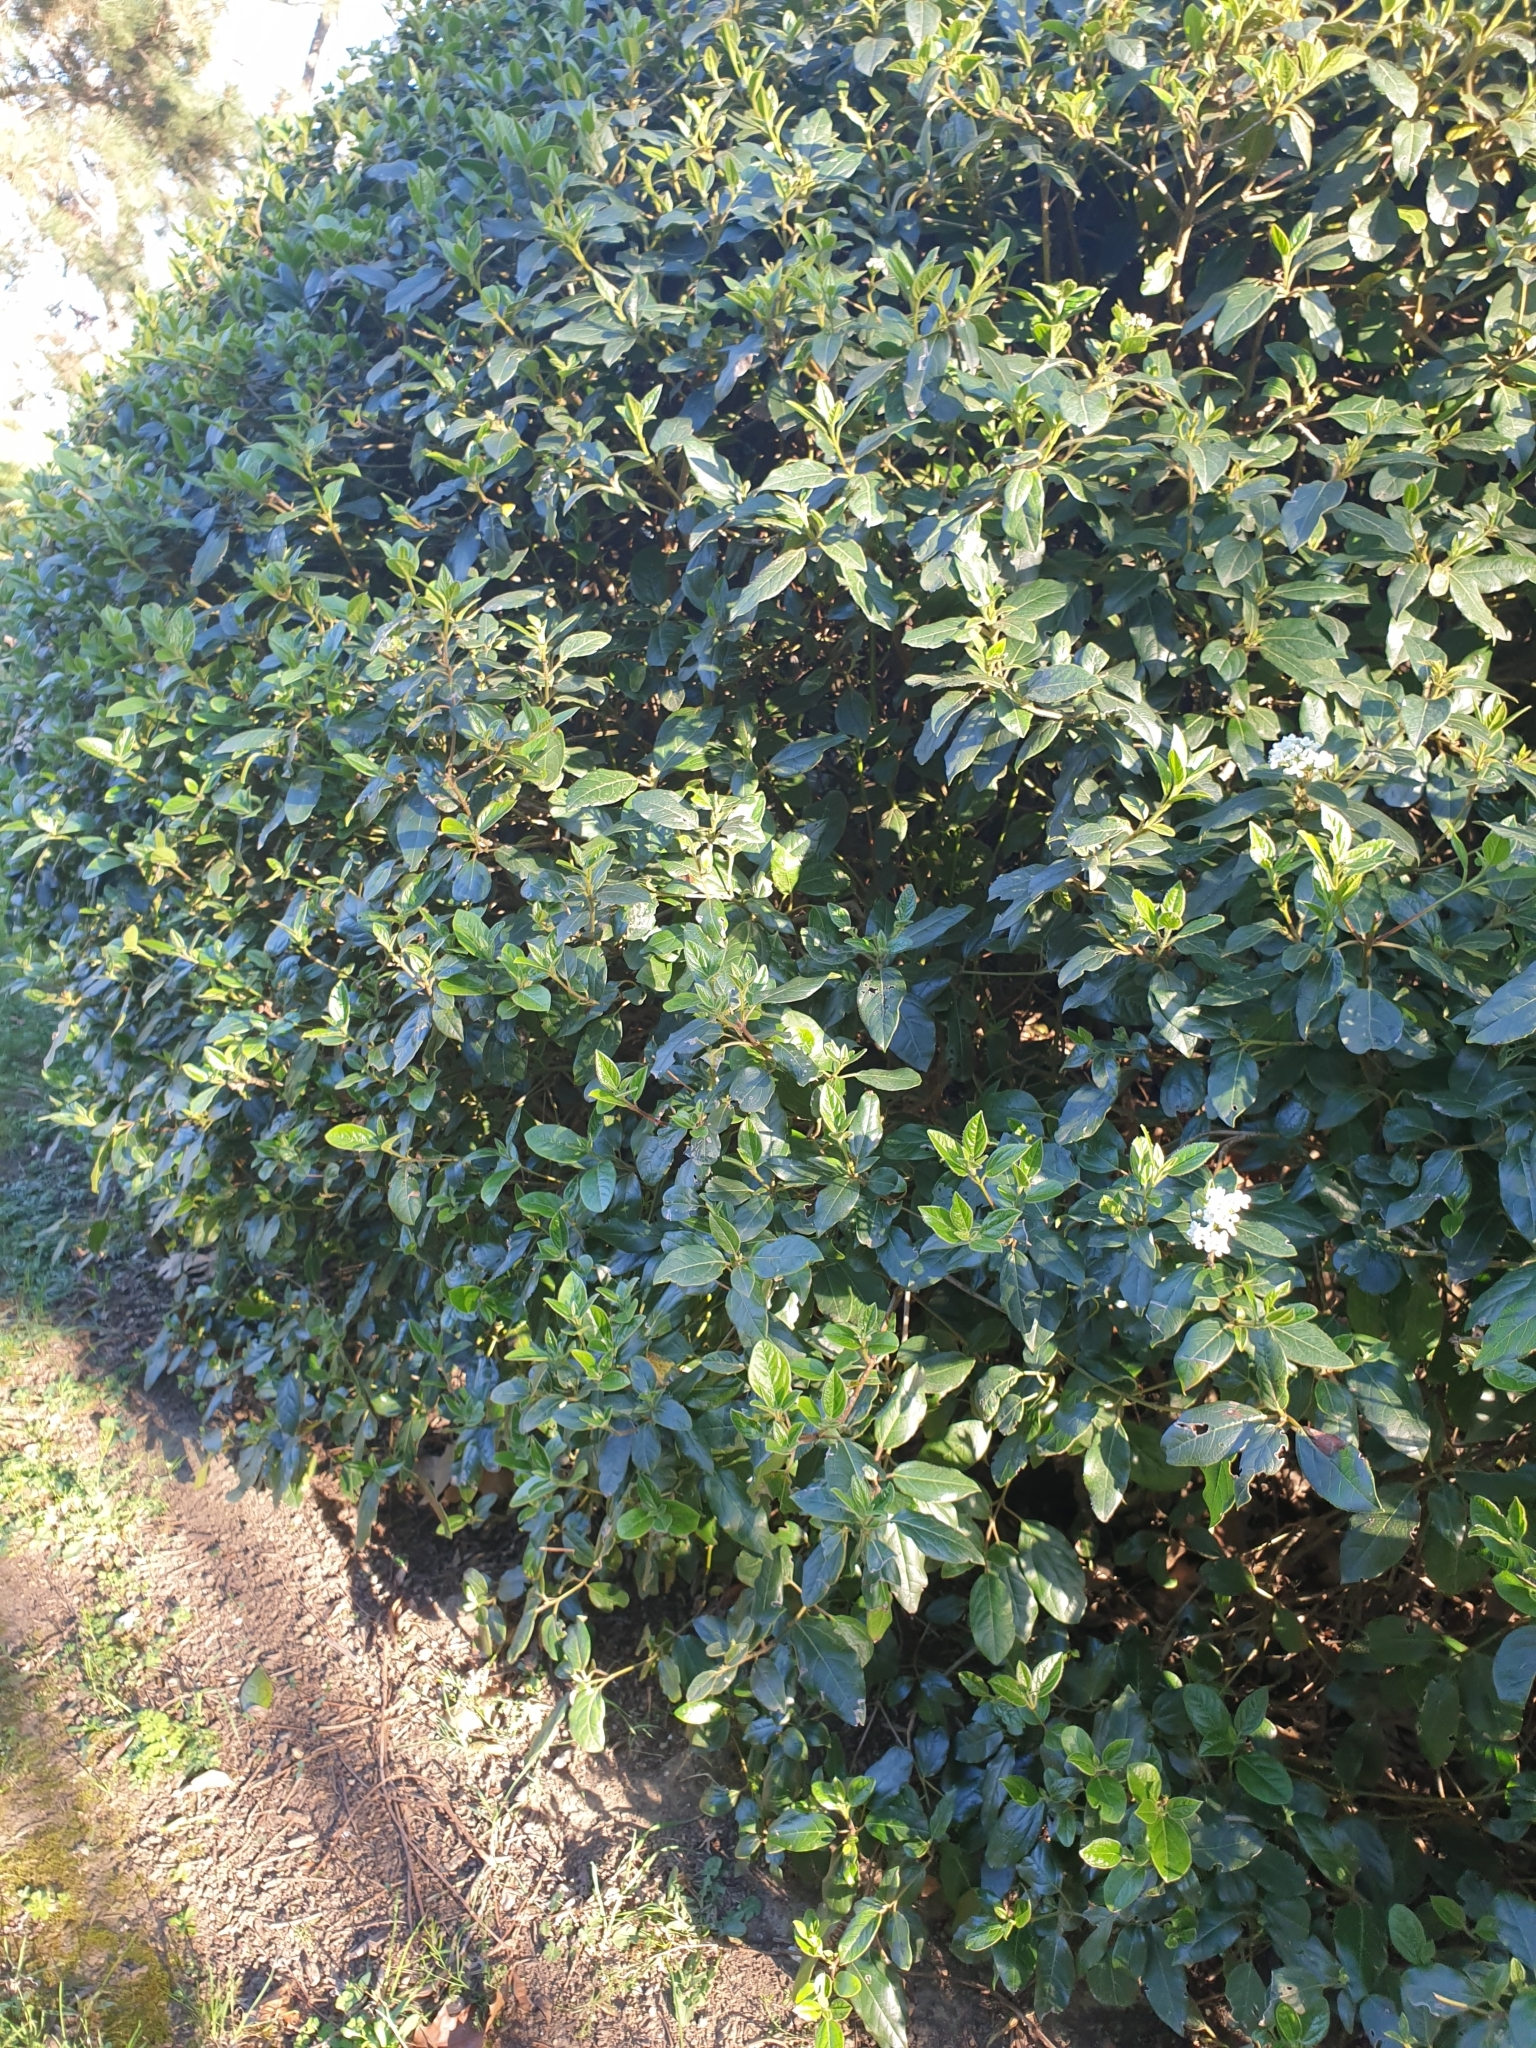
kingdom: Plantae
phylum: Tracheophyta
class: Magnoliopsida
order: Dipsacales
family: Viburnaceae
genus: Viburnum
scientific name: Viburnum tinus
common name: Laurustinus
